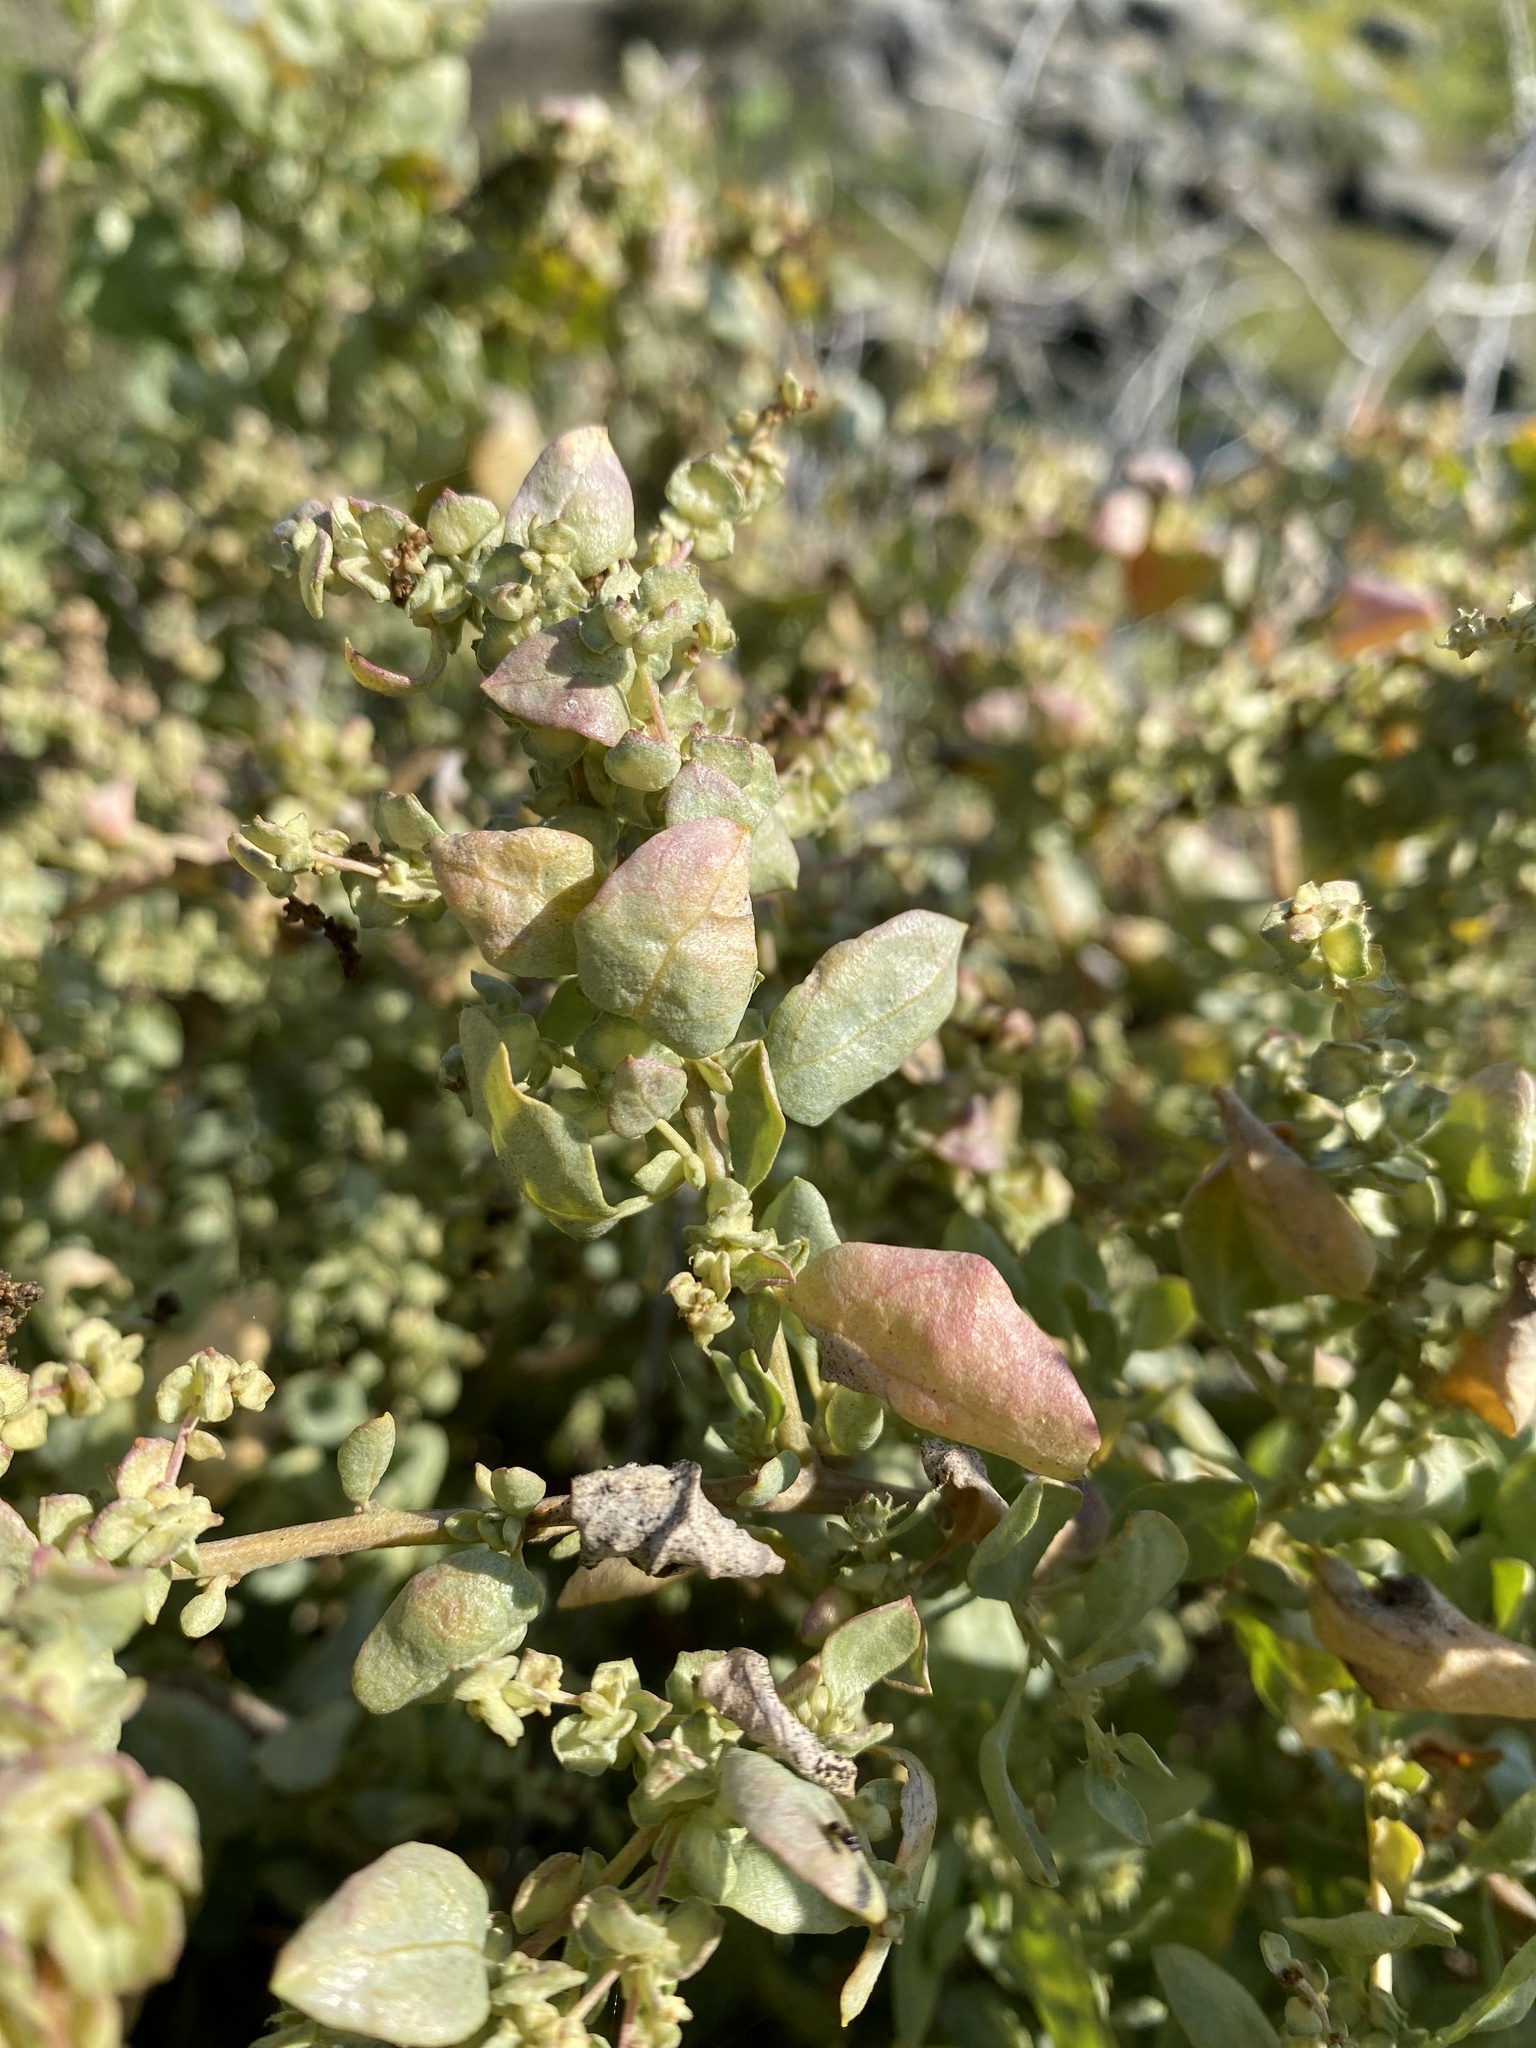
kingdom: Plantae
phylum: Tracheophyta
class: Magnoliopsida
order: Caryophyllales
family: Amaranthaceae
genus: Atriplex
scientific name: Atriplex lentiformis
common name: Big saltbush
